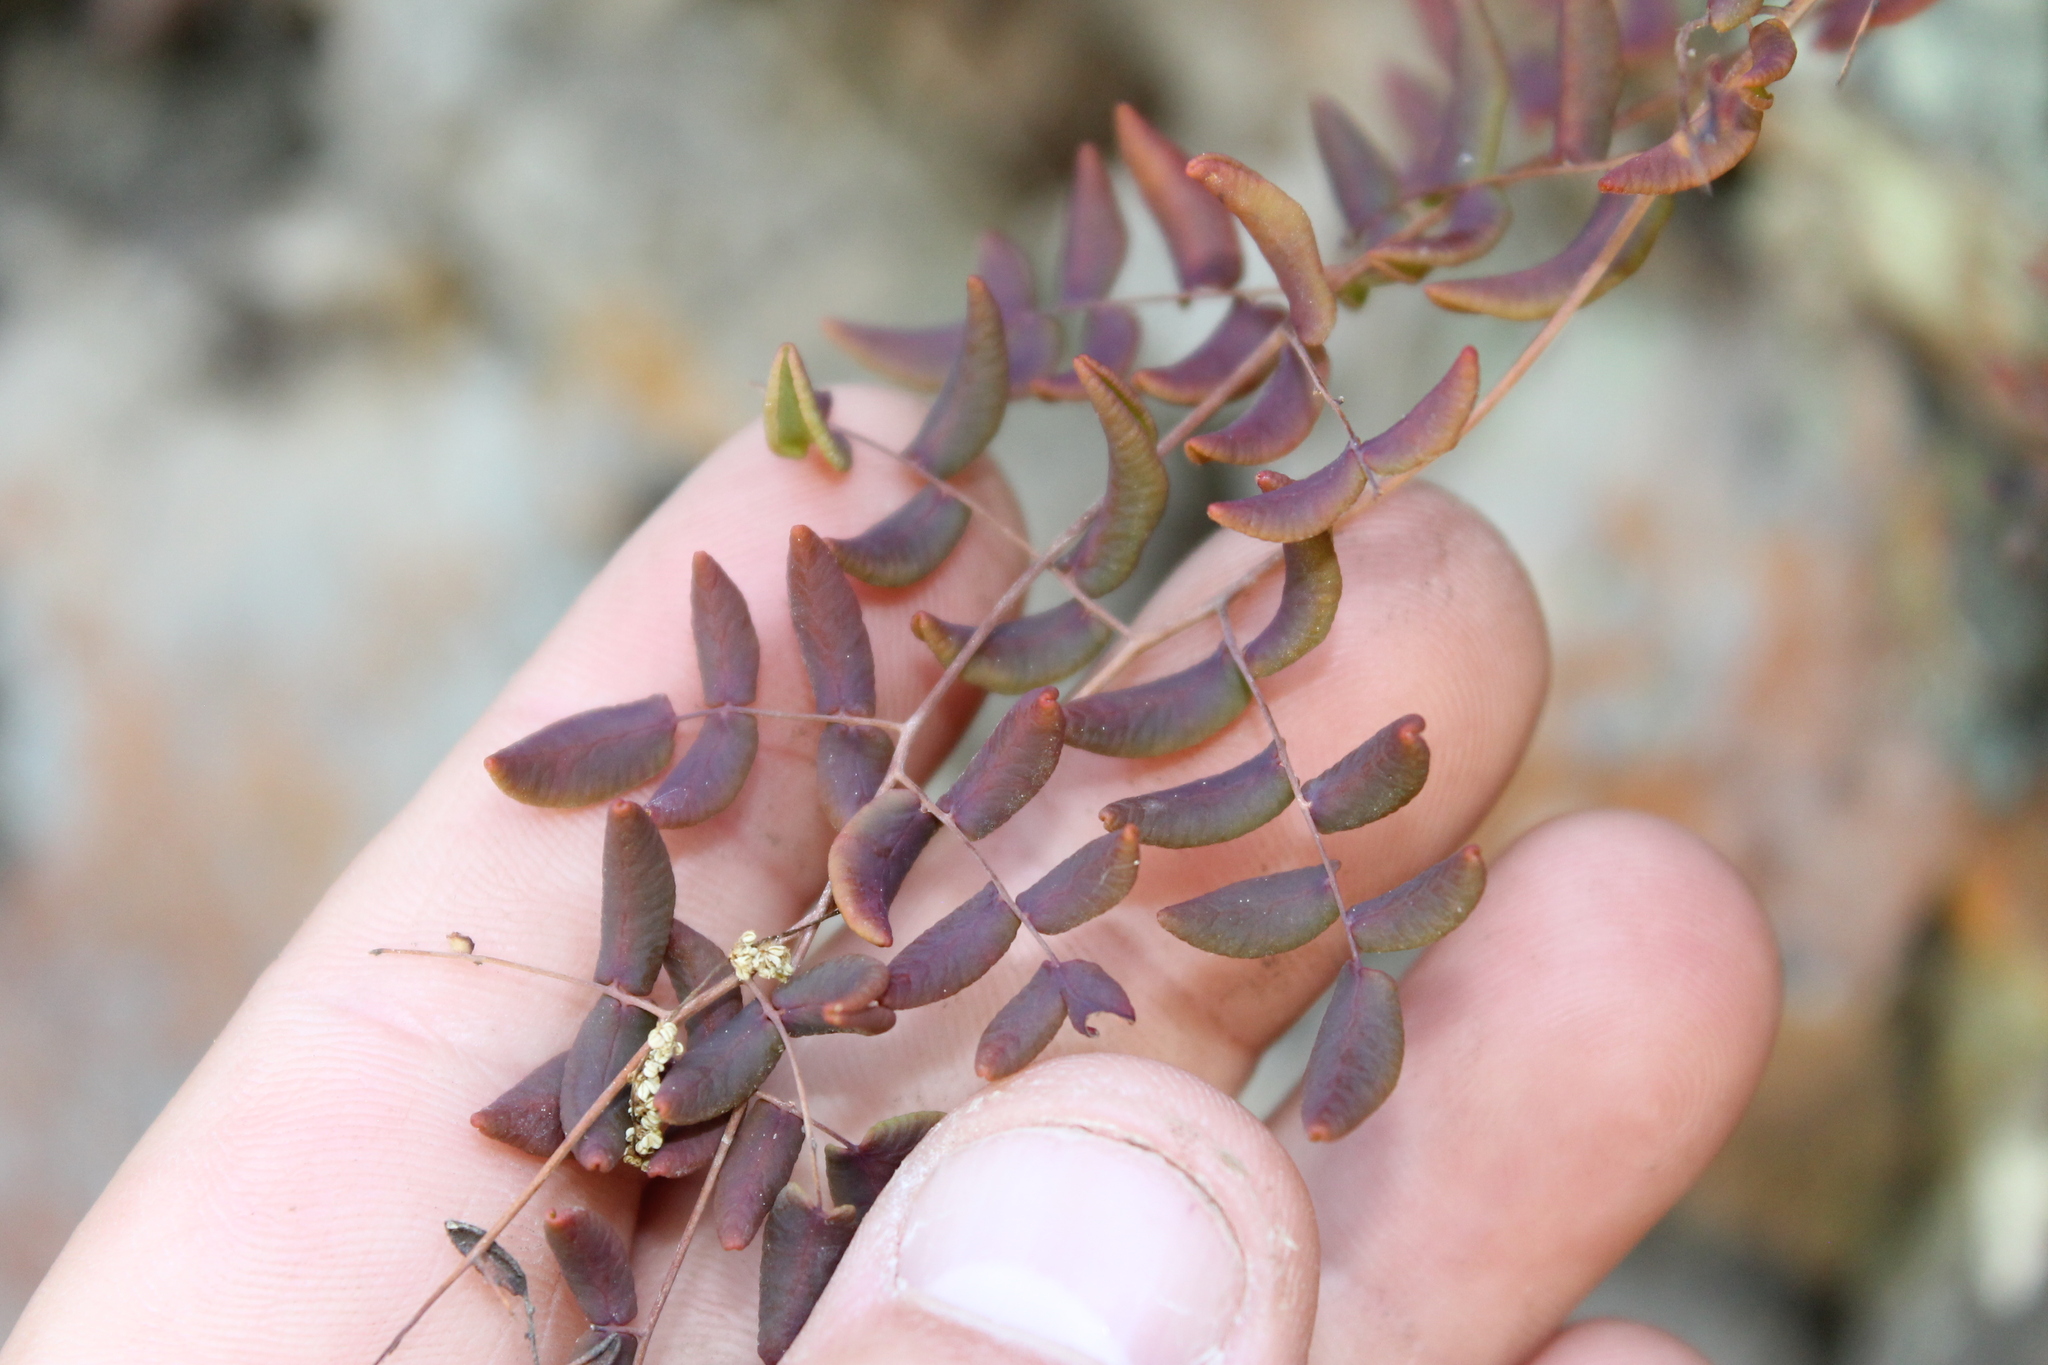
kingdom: Plantae
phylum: Tracheophyta
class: Polypodiopsida
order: Polypodiales
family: Pteridaceae
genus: Pellaea
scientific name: Pellaea andromedifolia
